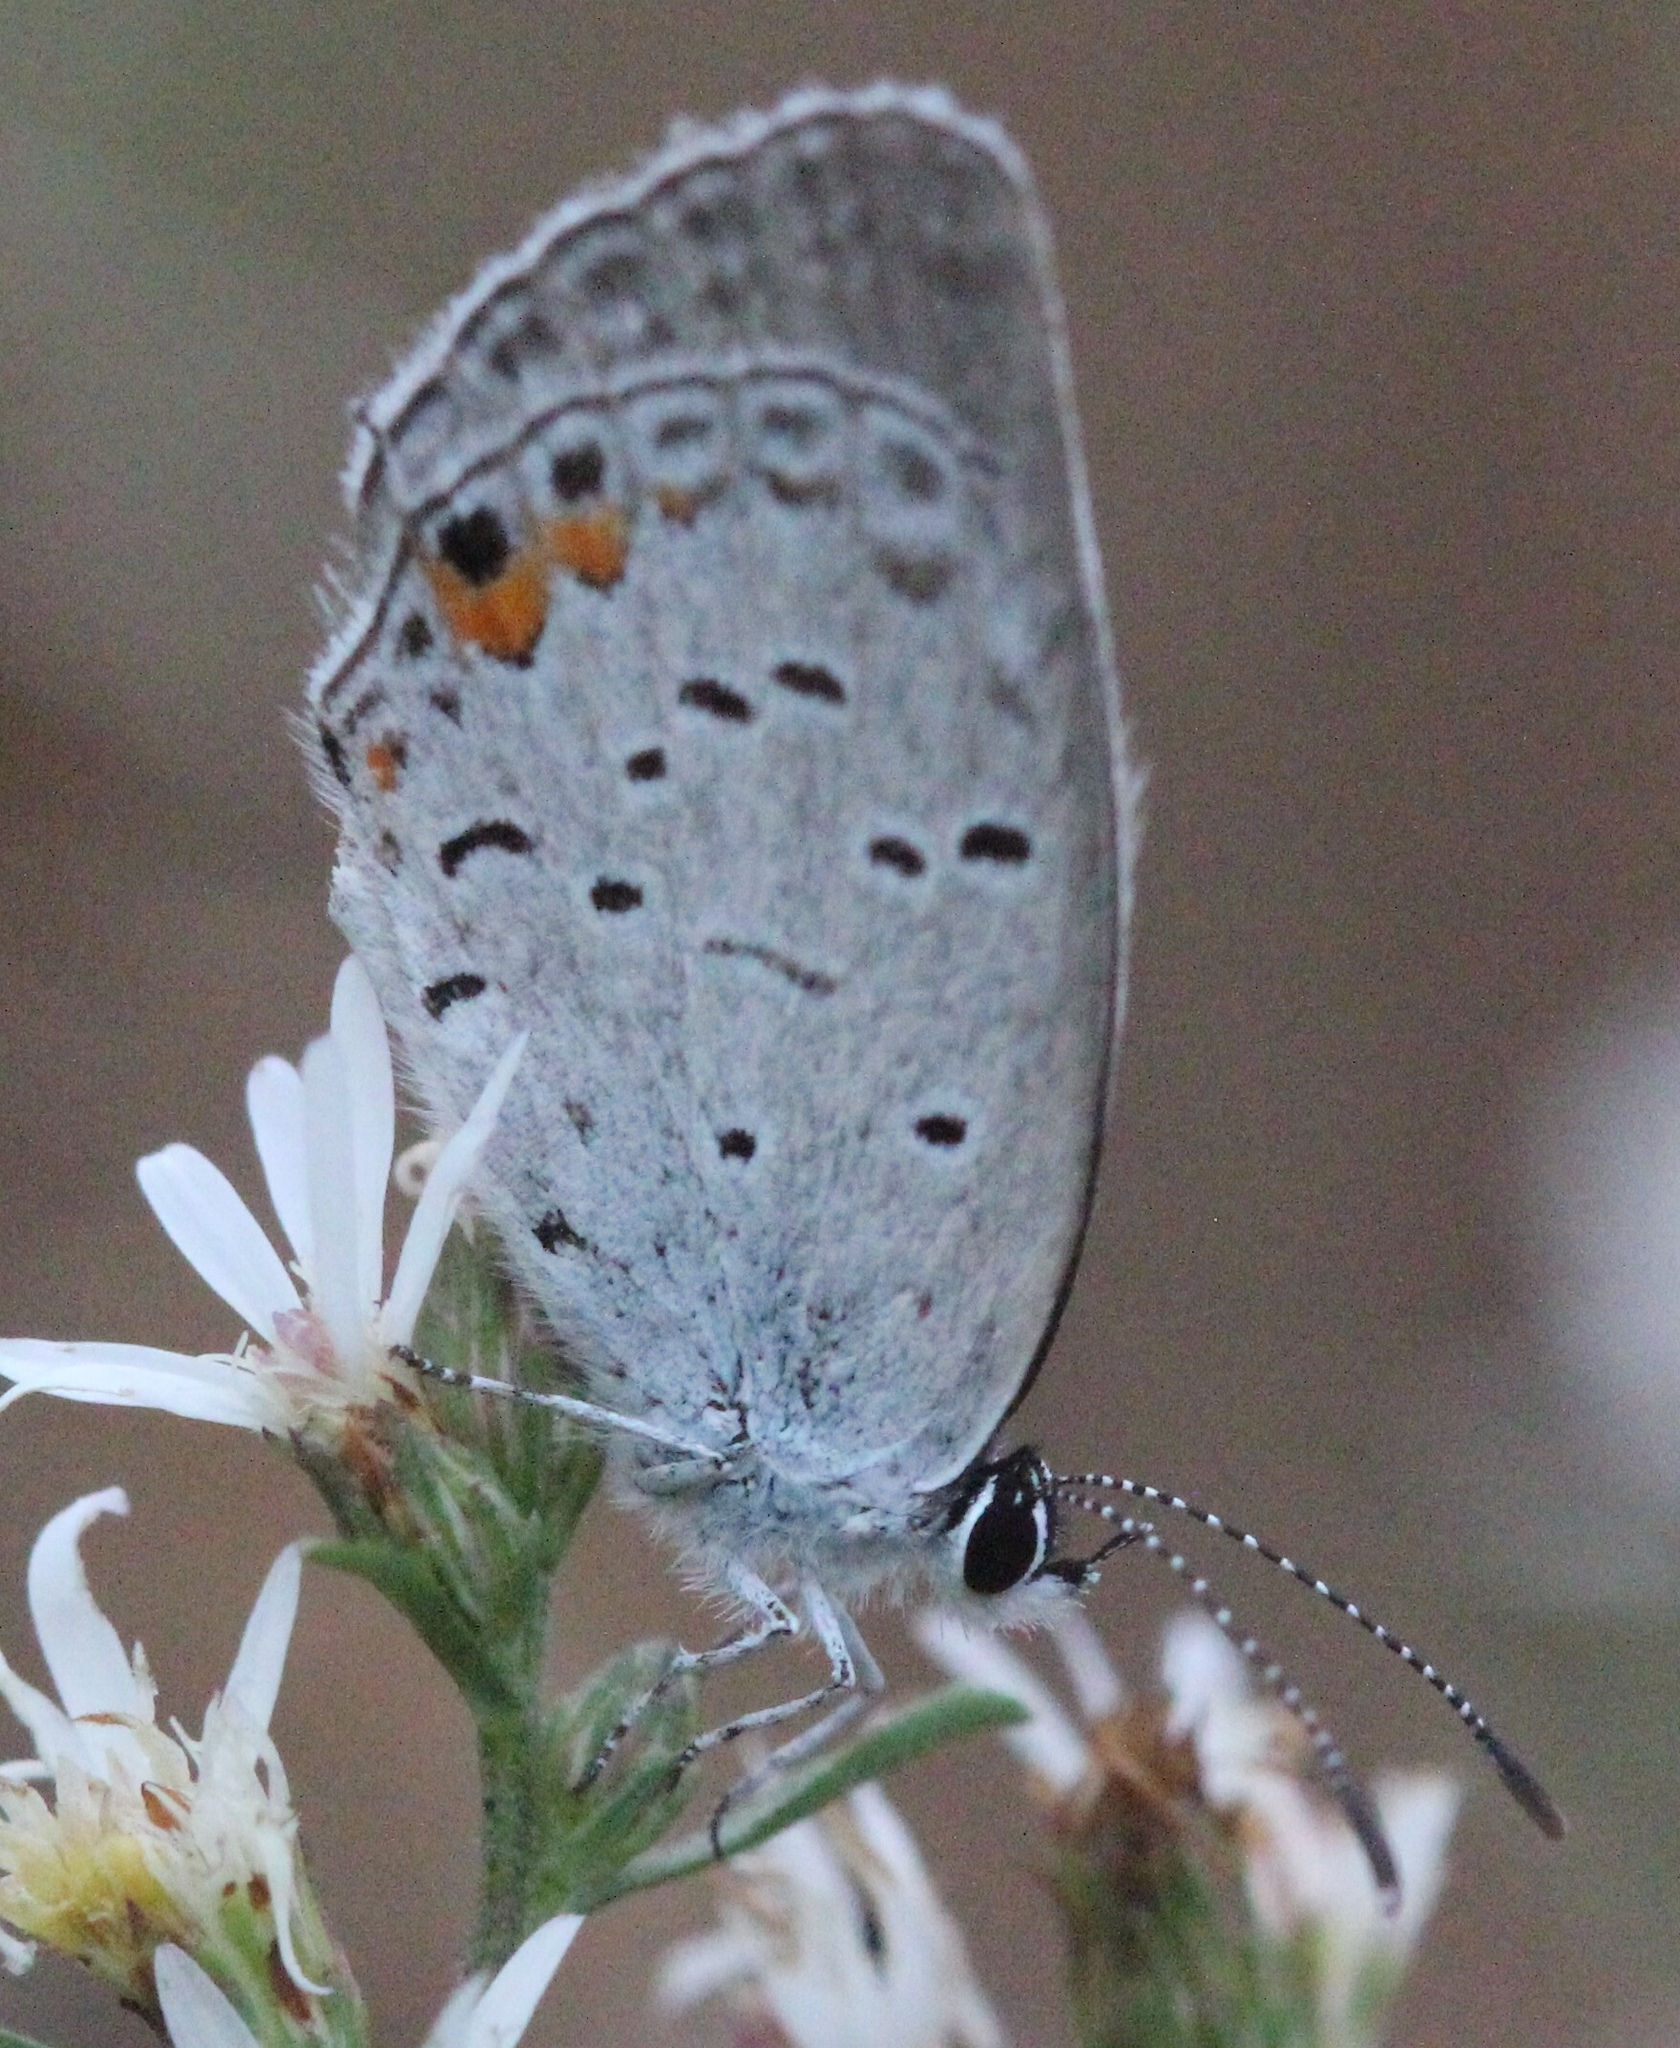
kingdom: Animalia
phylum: Arthropoda
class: Insecta
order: Lepidoptera
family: Lycaenidae
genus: Elkalyce
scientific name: Elkalyce comyntas
